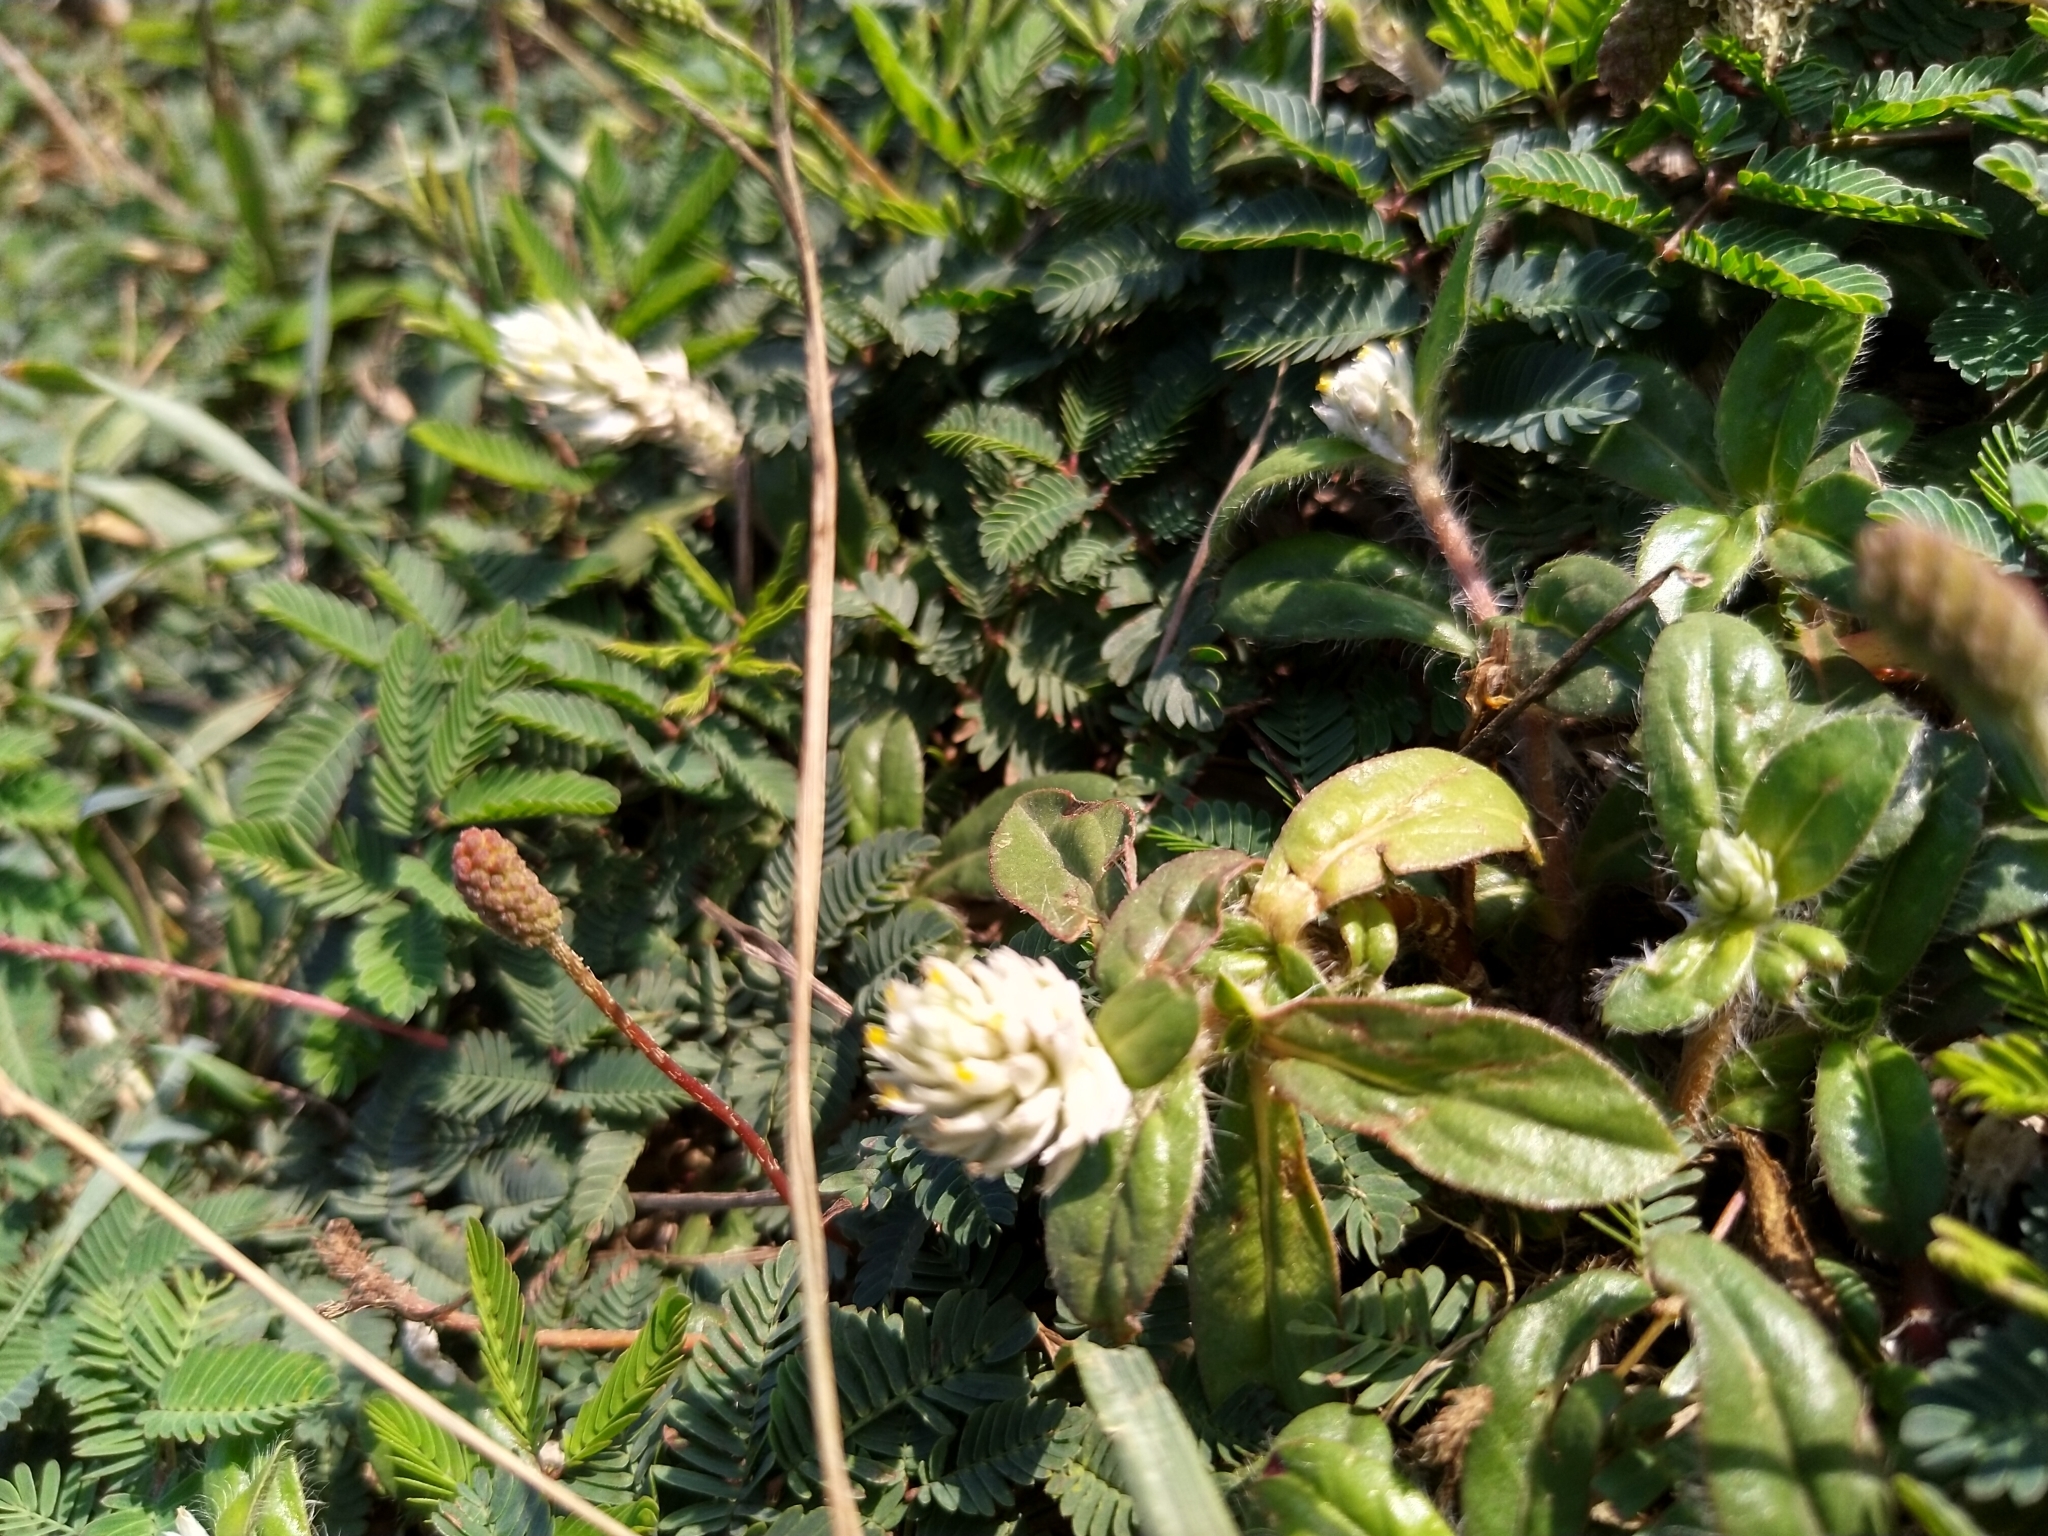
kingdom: Plantae
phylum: Tracheophyta
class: Magnoliopsida
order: Caryophyllales
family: Amaranthaceae
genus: Gomphrena
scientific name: Gomphrena celosioides
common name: Gomphrena-weed
